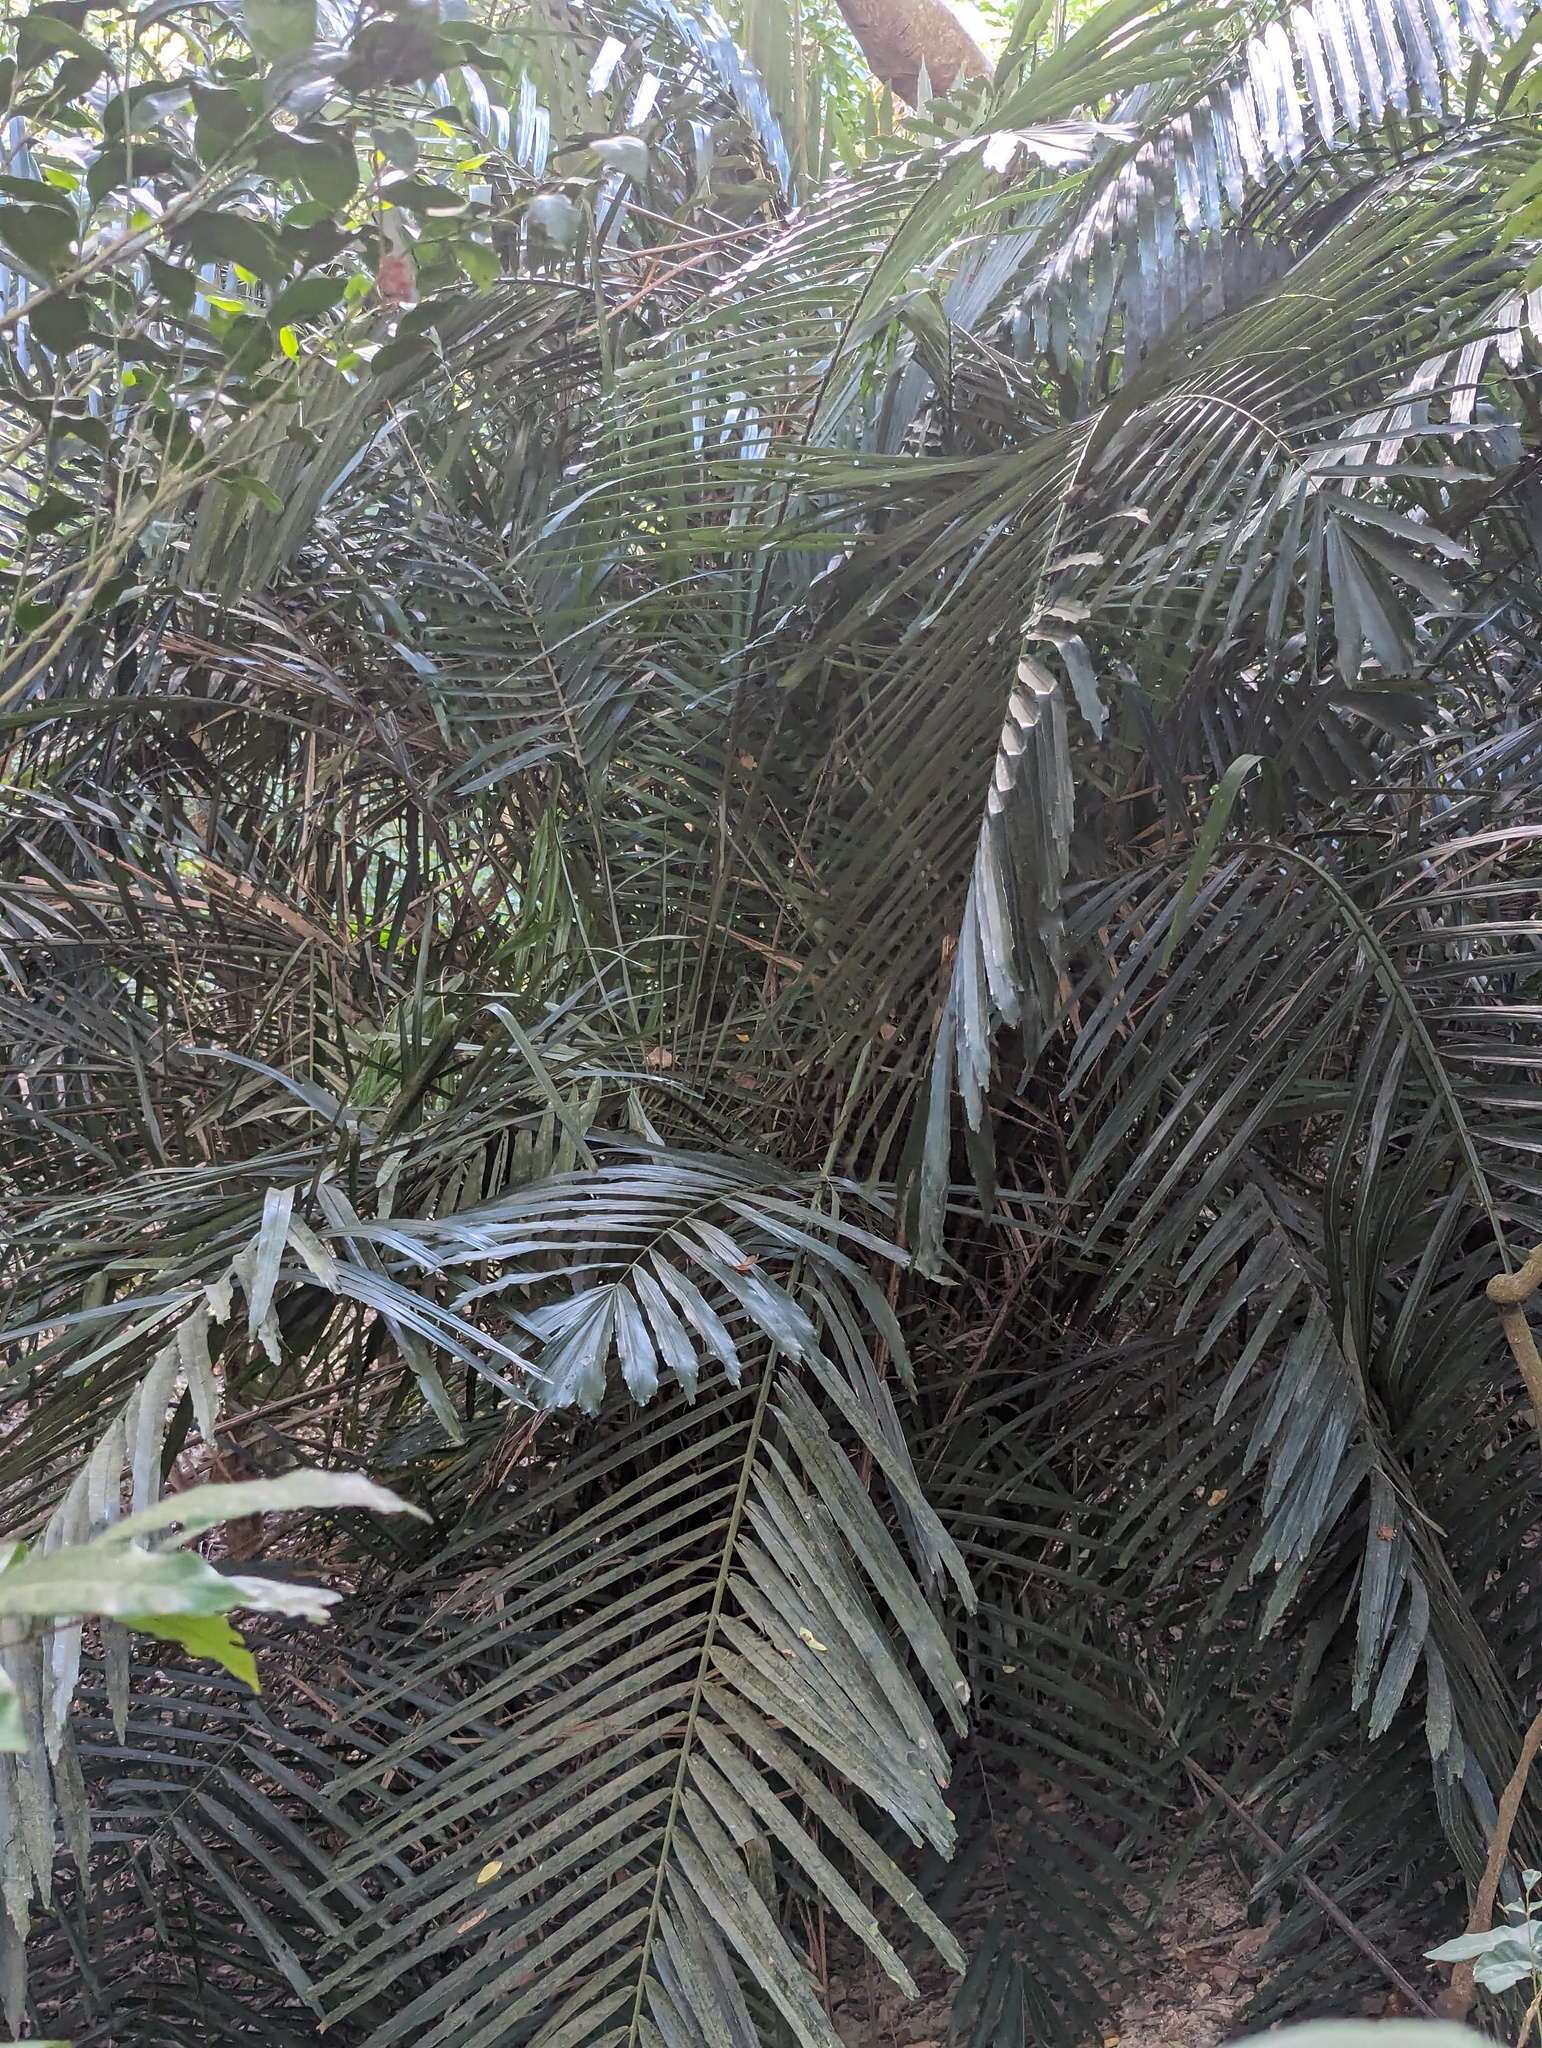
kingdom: Plantae
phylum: Tracheophyta
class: Liliopsida
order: Arecales
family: Arecaceae
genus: Arenga
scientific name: Arenga engleri
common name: Formosan sugar palm
